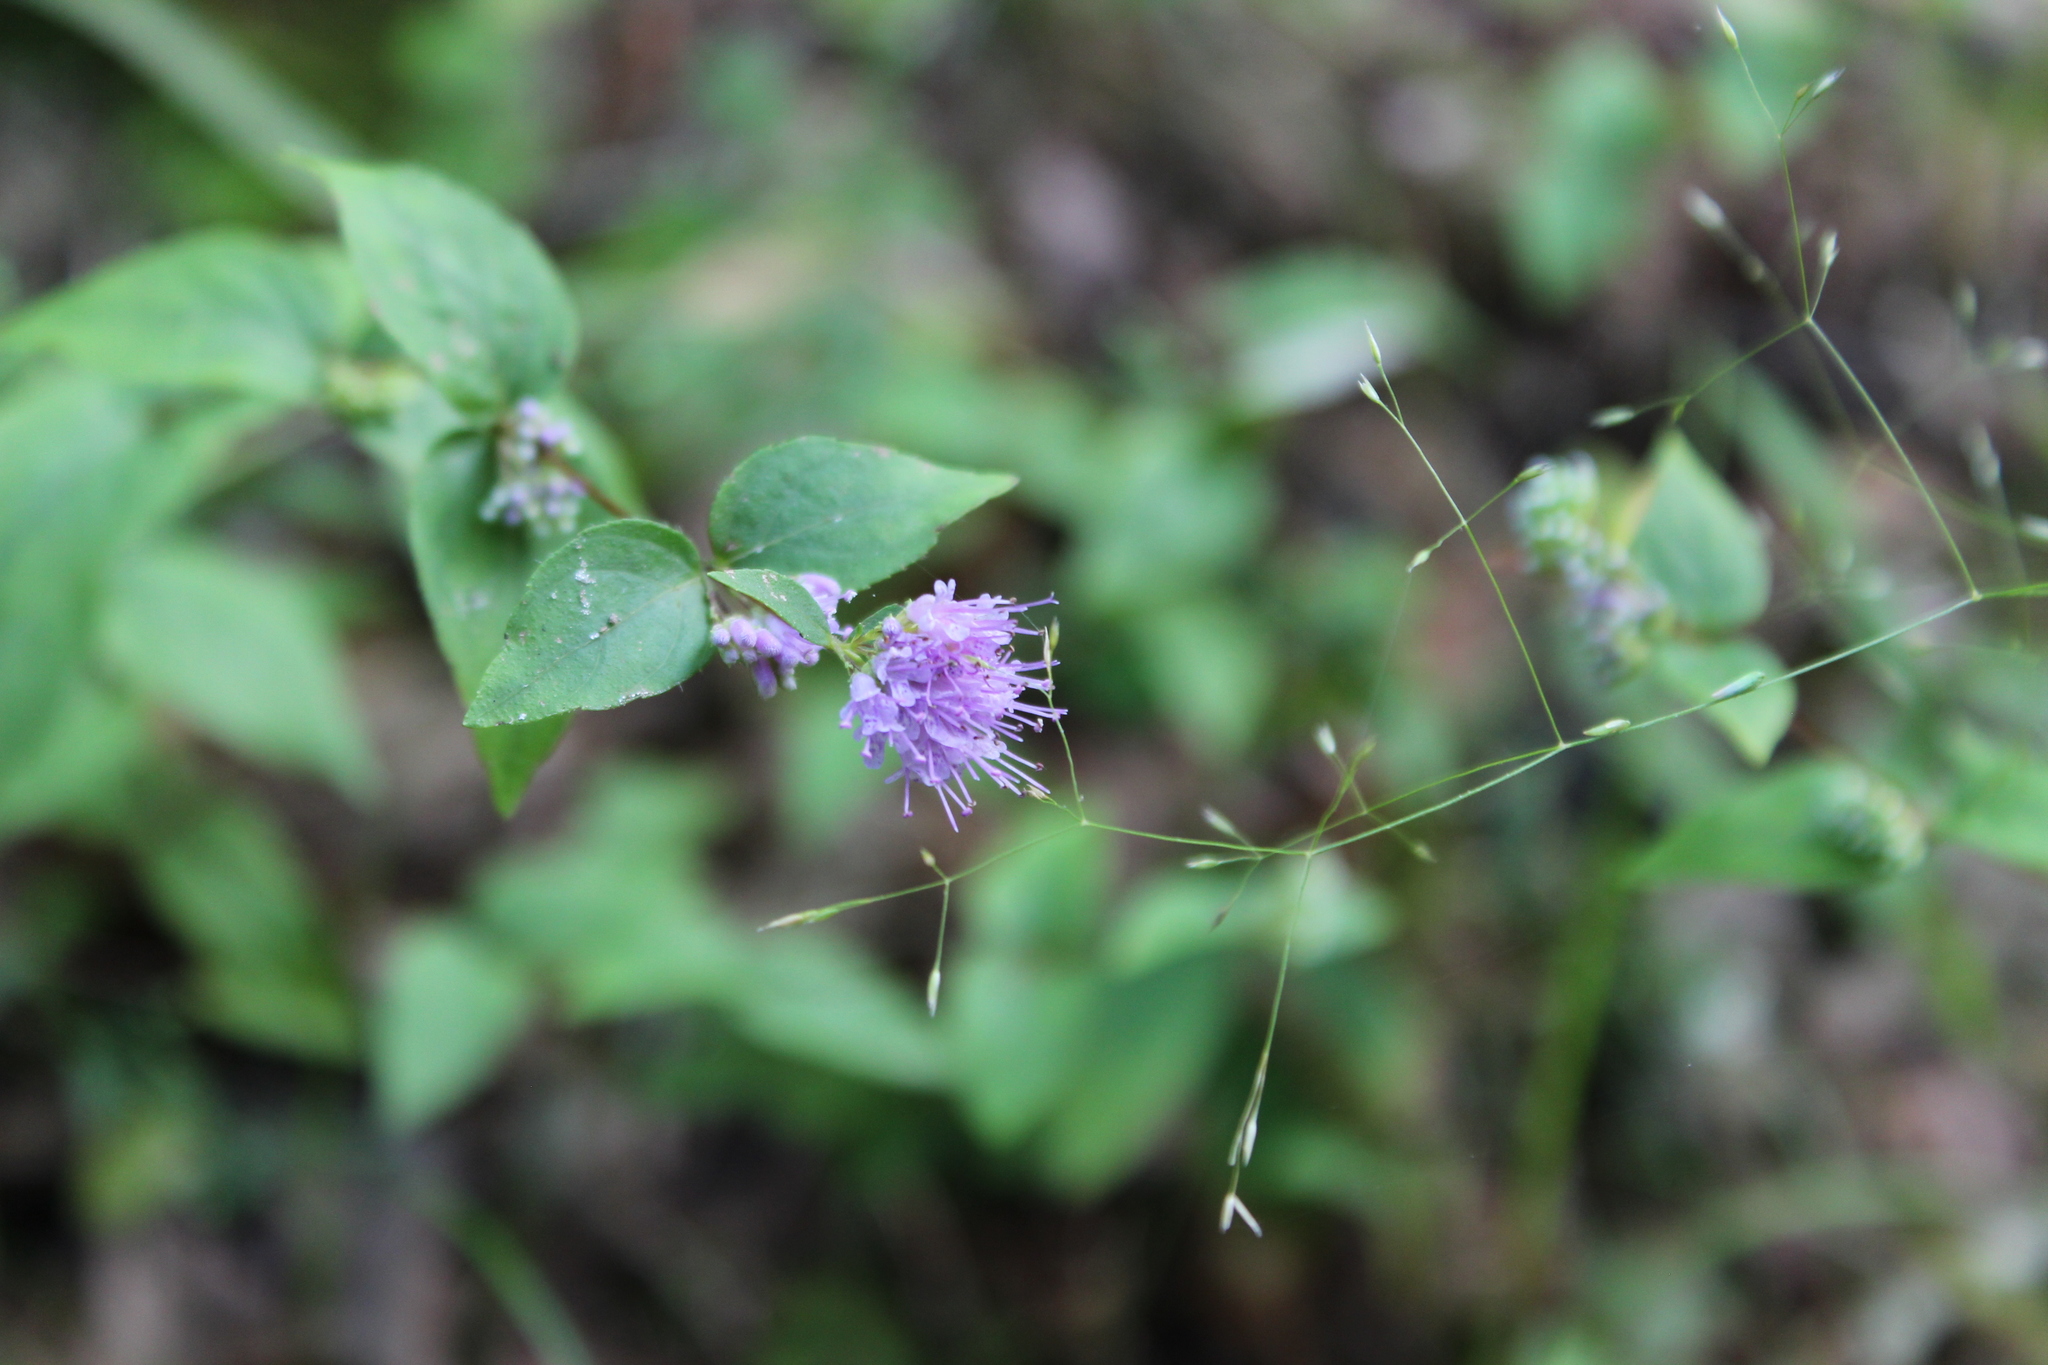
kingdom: Plantae
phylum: Tracheophyta
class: Magnoliopsida
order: Lamiales
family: Lamiaceae
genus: Cunila
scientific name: Cunila origanoides
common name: American dittany
